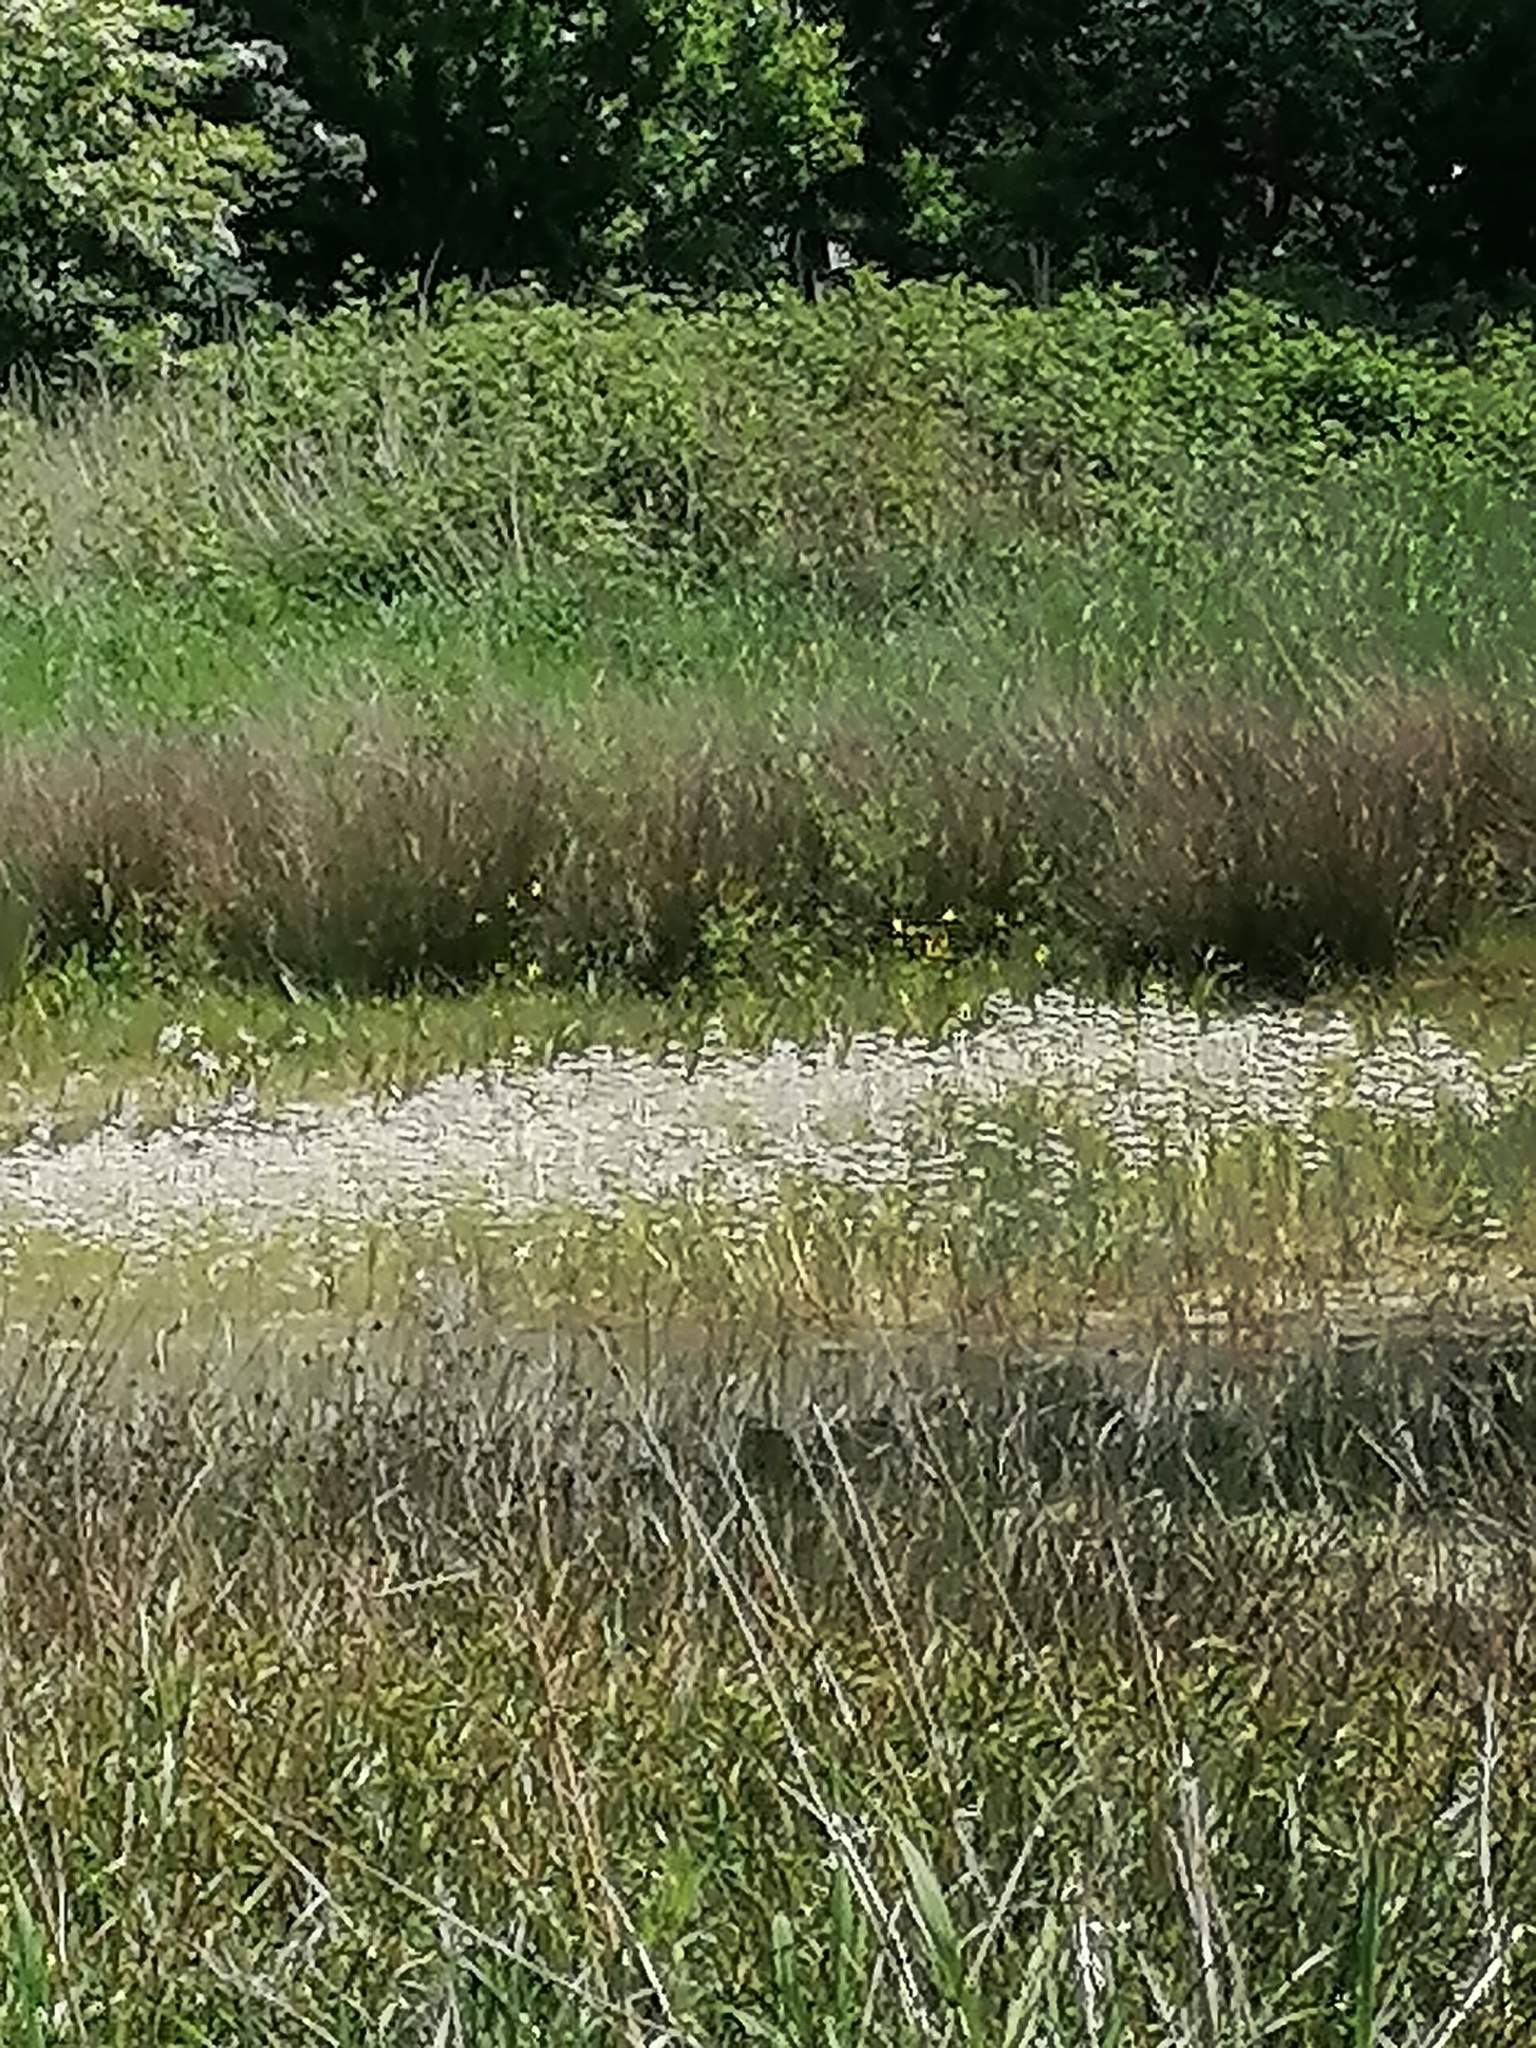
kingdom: Plantae
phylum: Tracheophyta
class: Magnoliopsida
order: Ericales
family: Primulaceae
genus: Hottonia
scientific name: Hottonia palustris
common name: Water-violet
